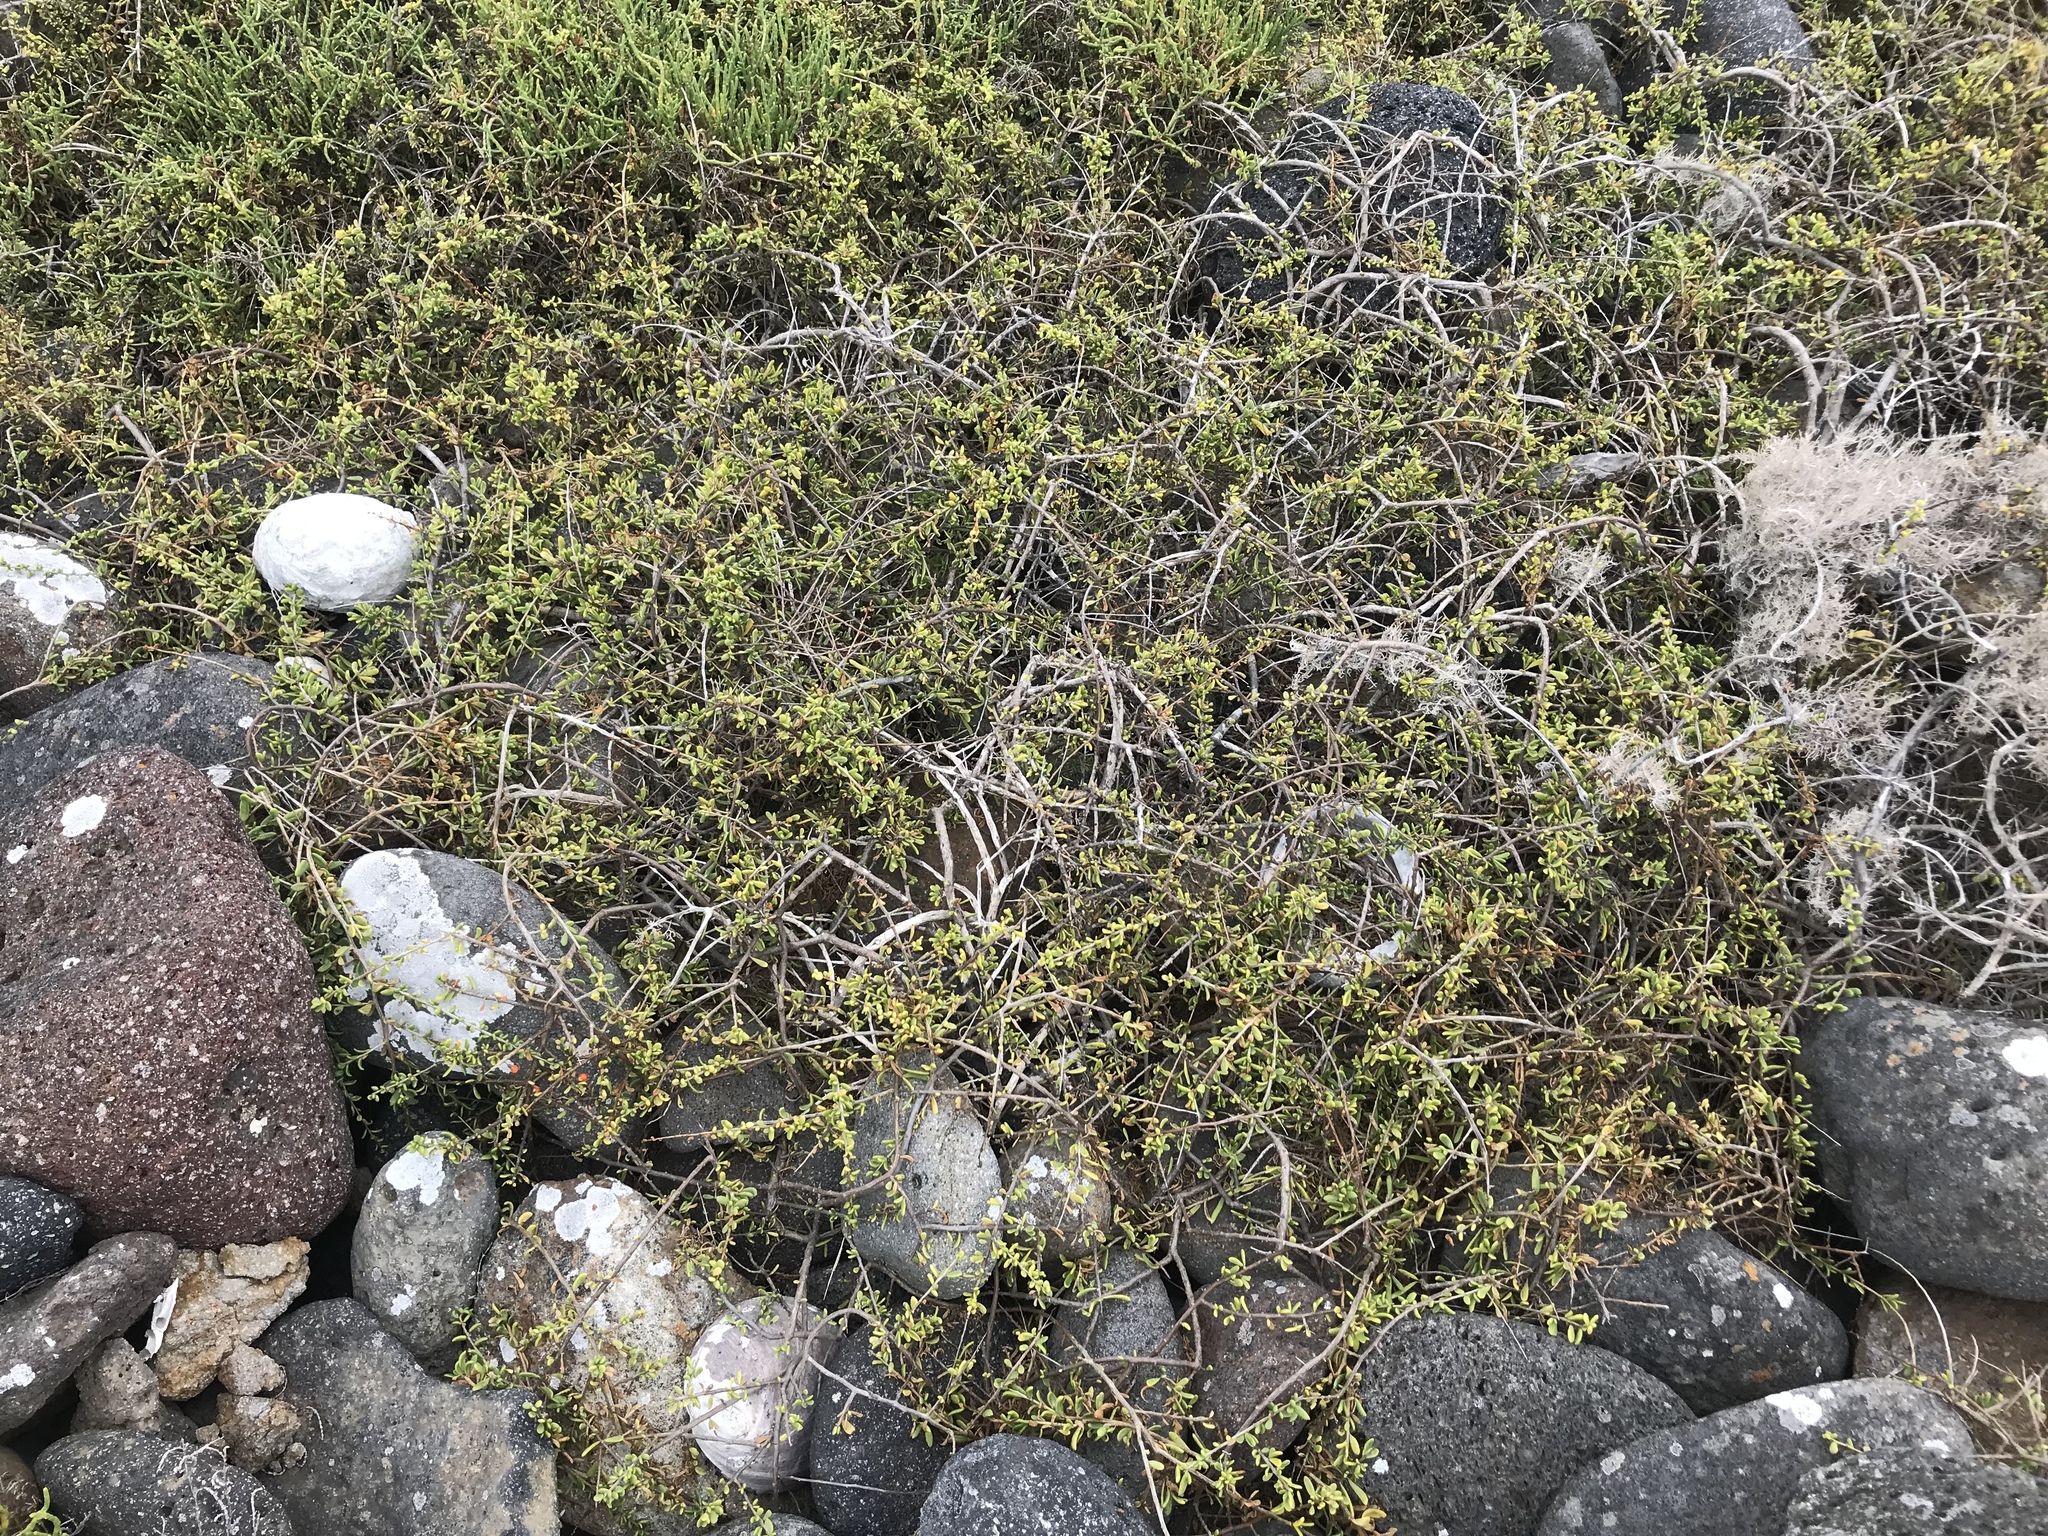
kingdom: Plantae
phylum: Tracheophyta
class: Magnoliopsida
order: Solanales
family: Solanaceae
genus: Lycium
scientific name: Lycium brevipes
